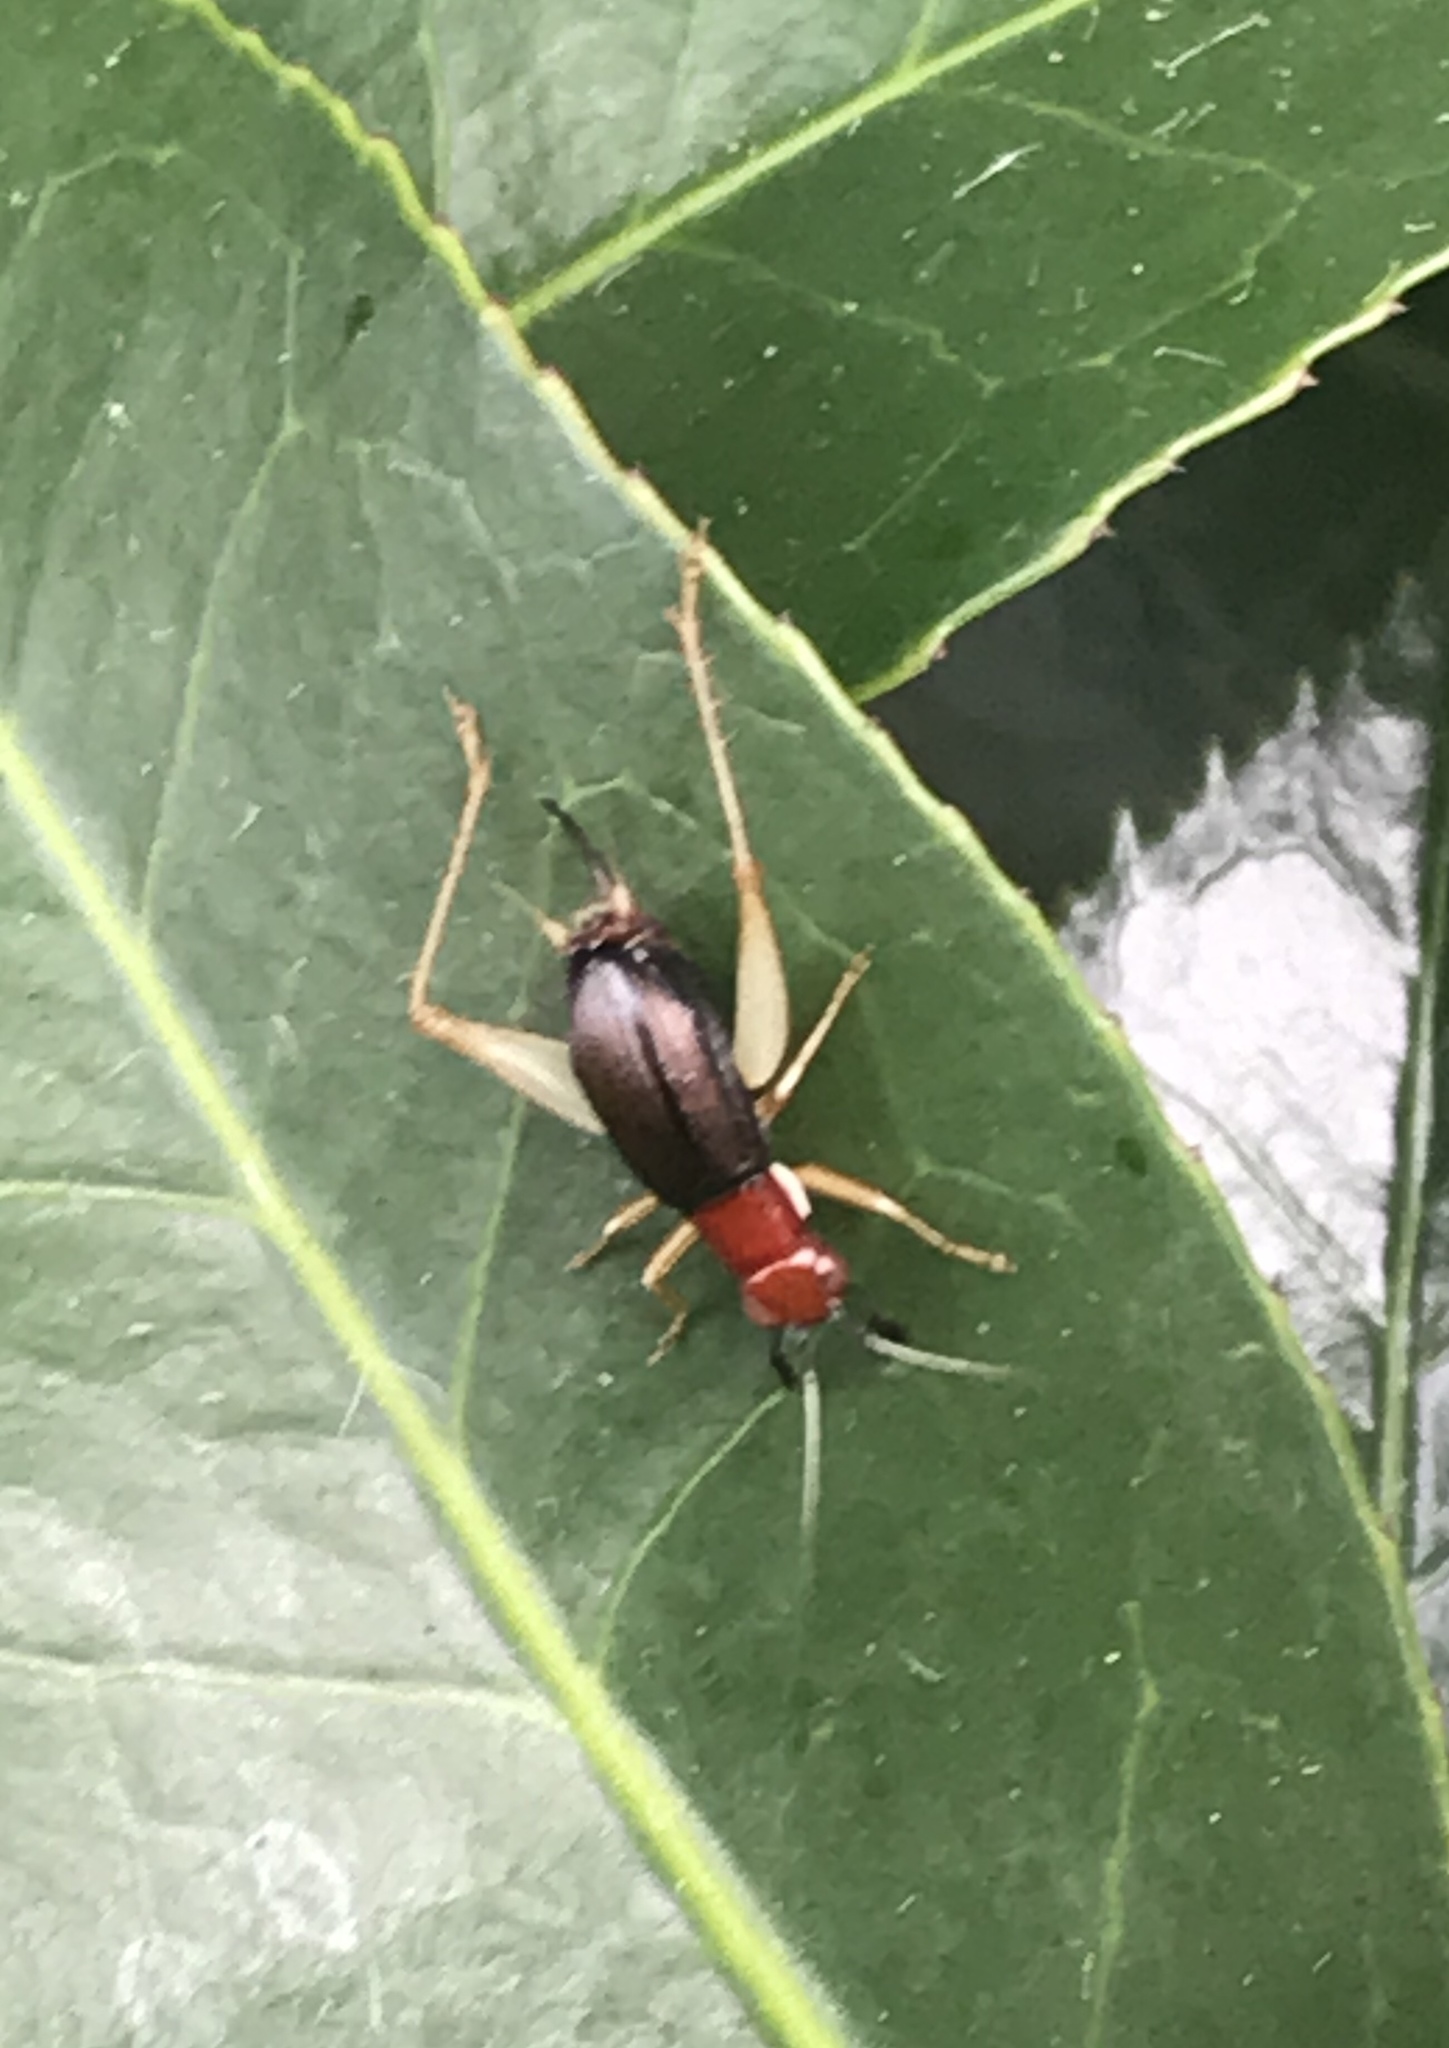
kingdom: Animalia
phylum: Arthropoda
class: Insecta
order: Orthoptera
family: Trigonidiidae
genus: Phyllopalpus
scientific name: Phyllopalpus pulchellus
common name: Handsome trig
